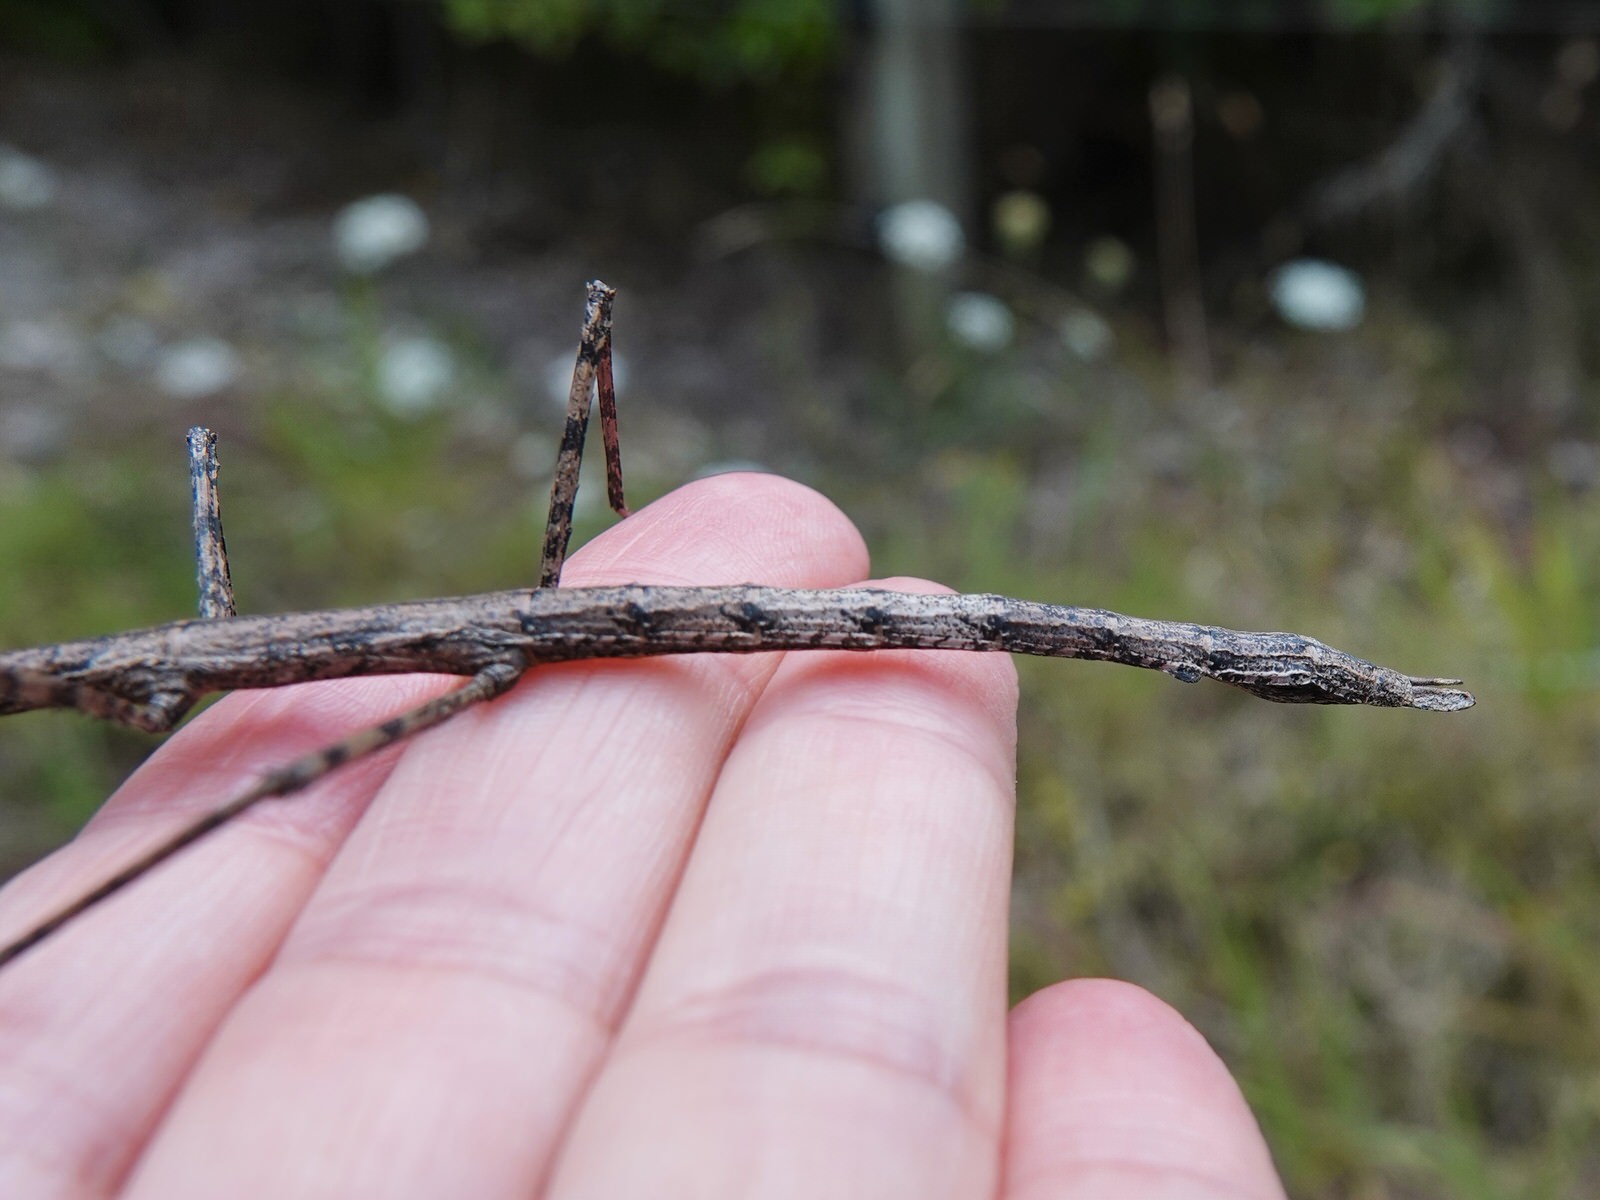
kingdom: Animalia
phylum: Arthropoda
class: Insecta
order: Phasmida
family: Phasmatidae
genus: Clitarchus
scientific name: Clitarchus hookeri
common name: Smooth stick insect
